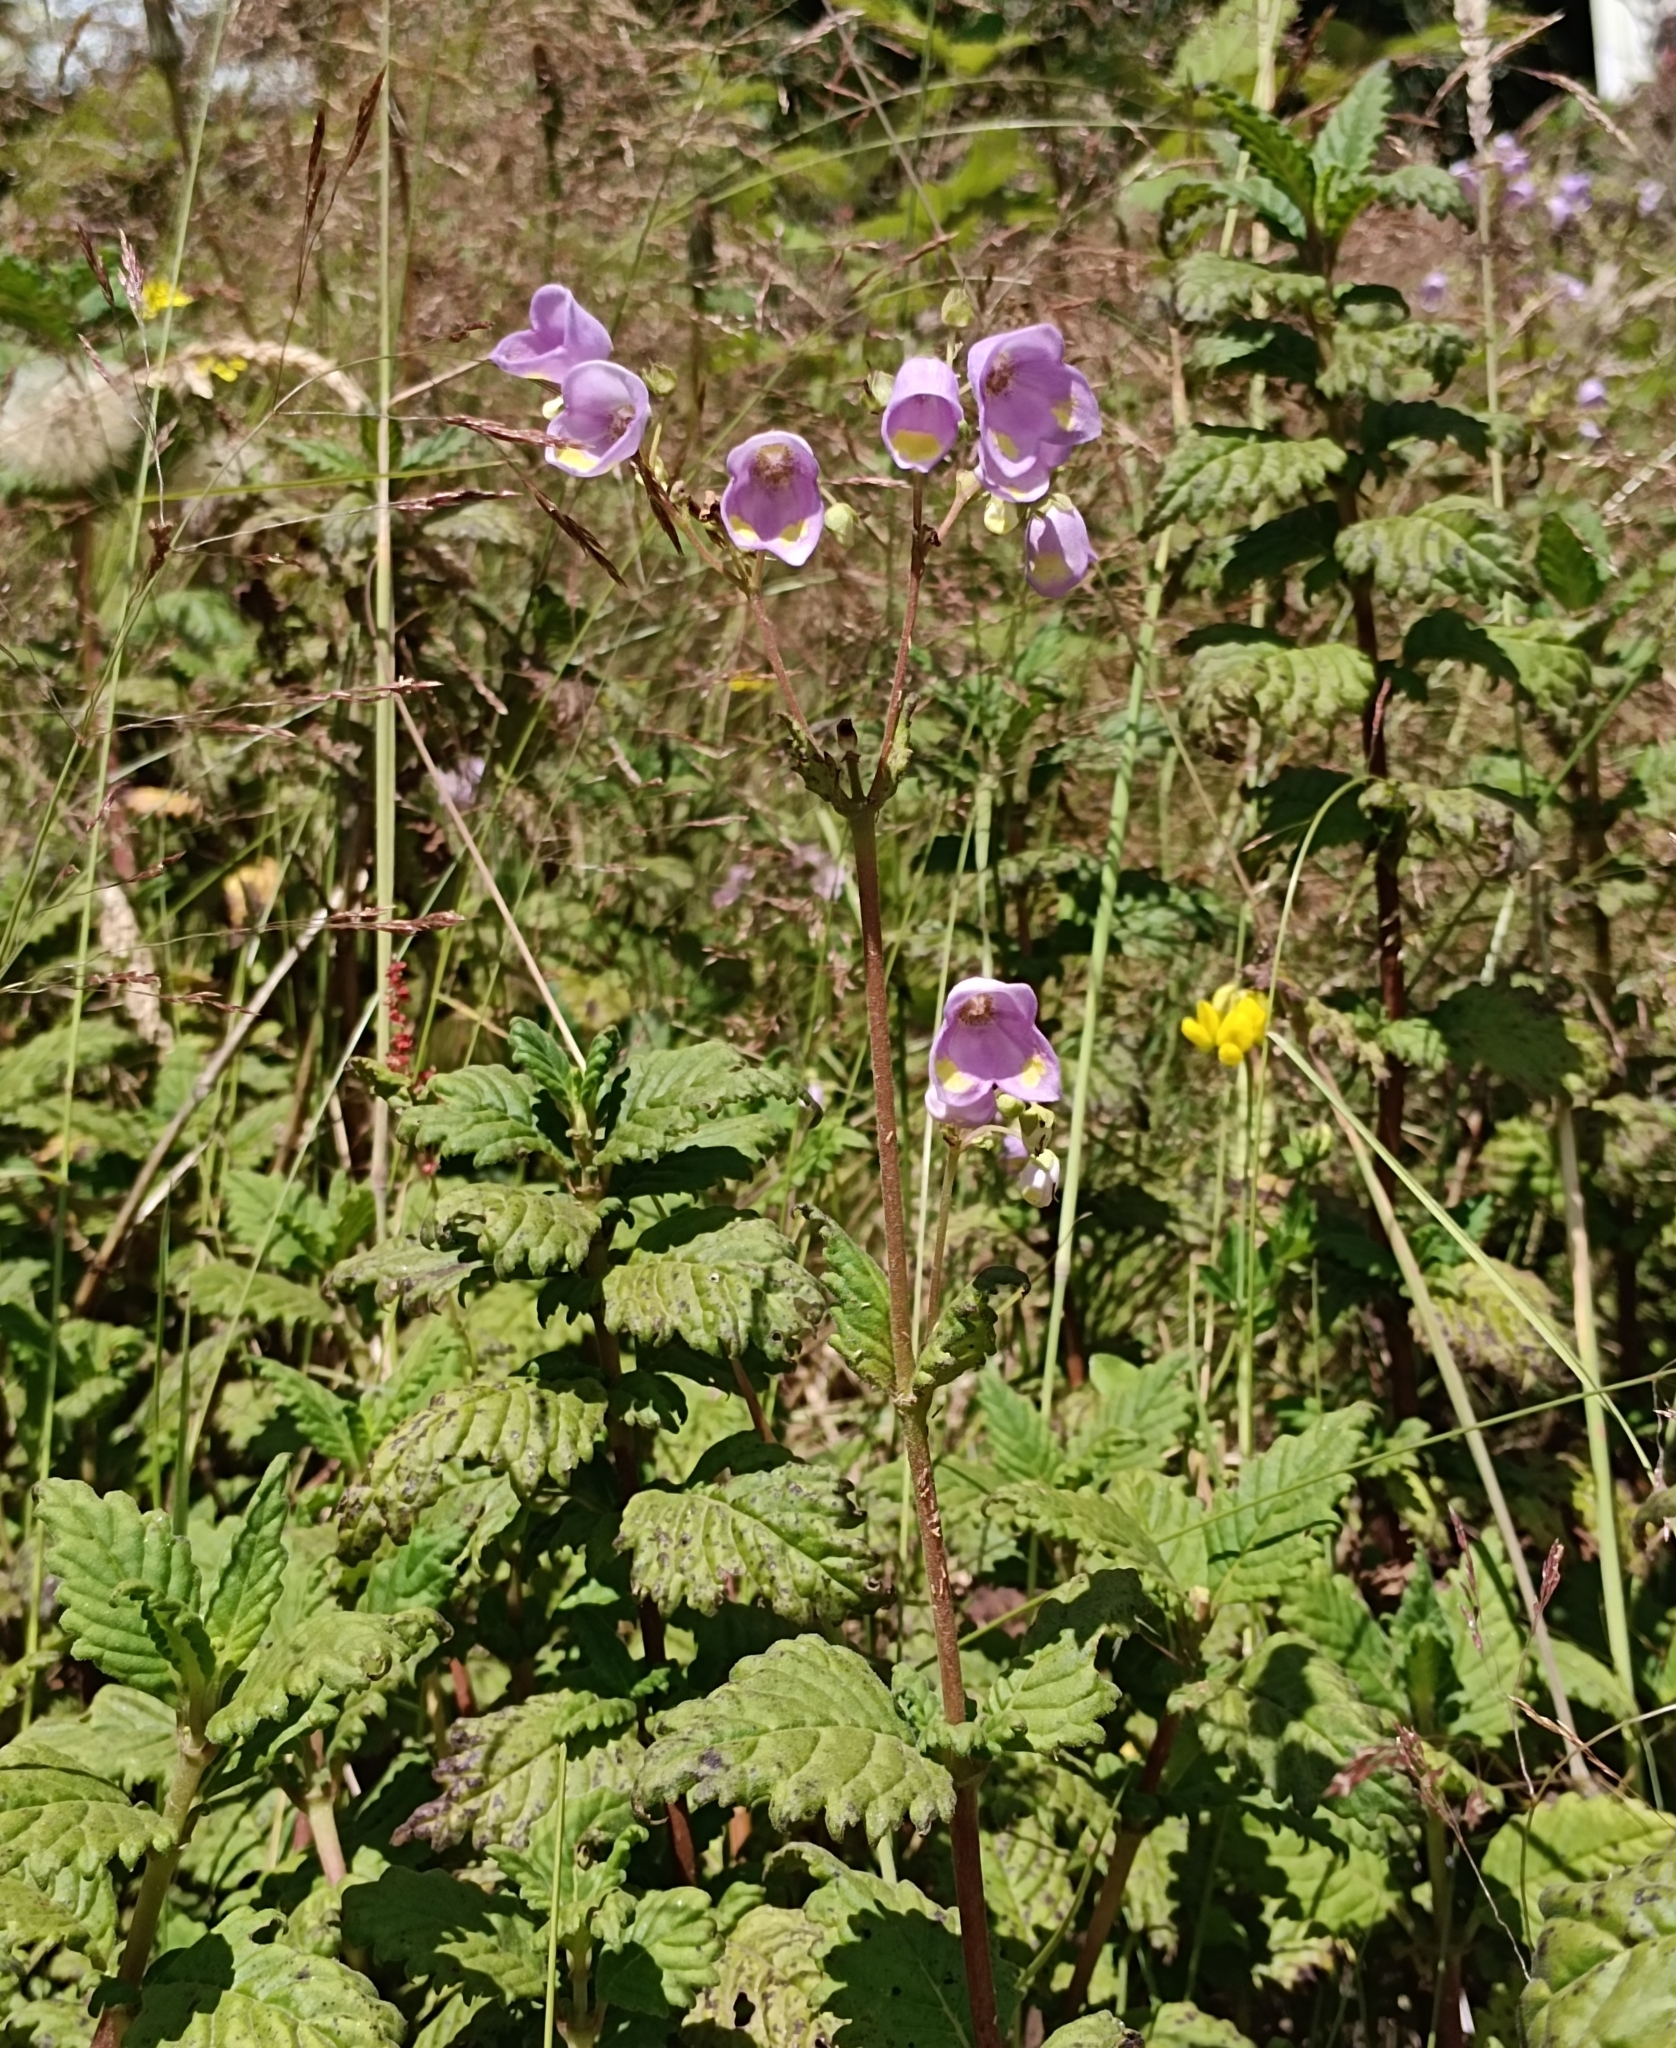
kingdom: Plantae
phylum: Tracheophyta
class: Magnoliopsida
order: Lamiales
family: Calceolariaceae
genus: Jovellana
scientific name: Jovellana punctata
